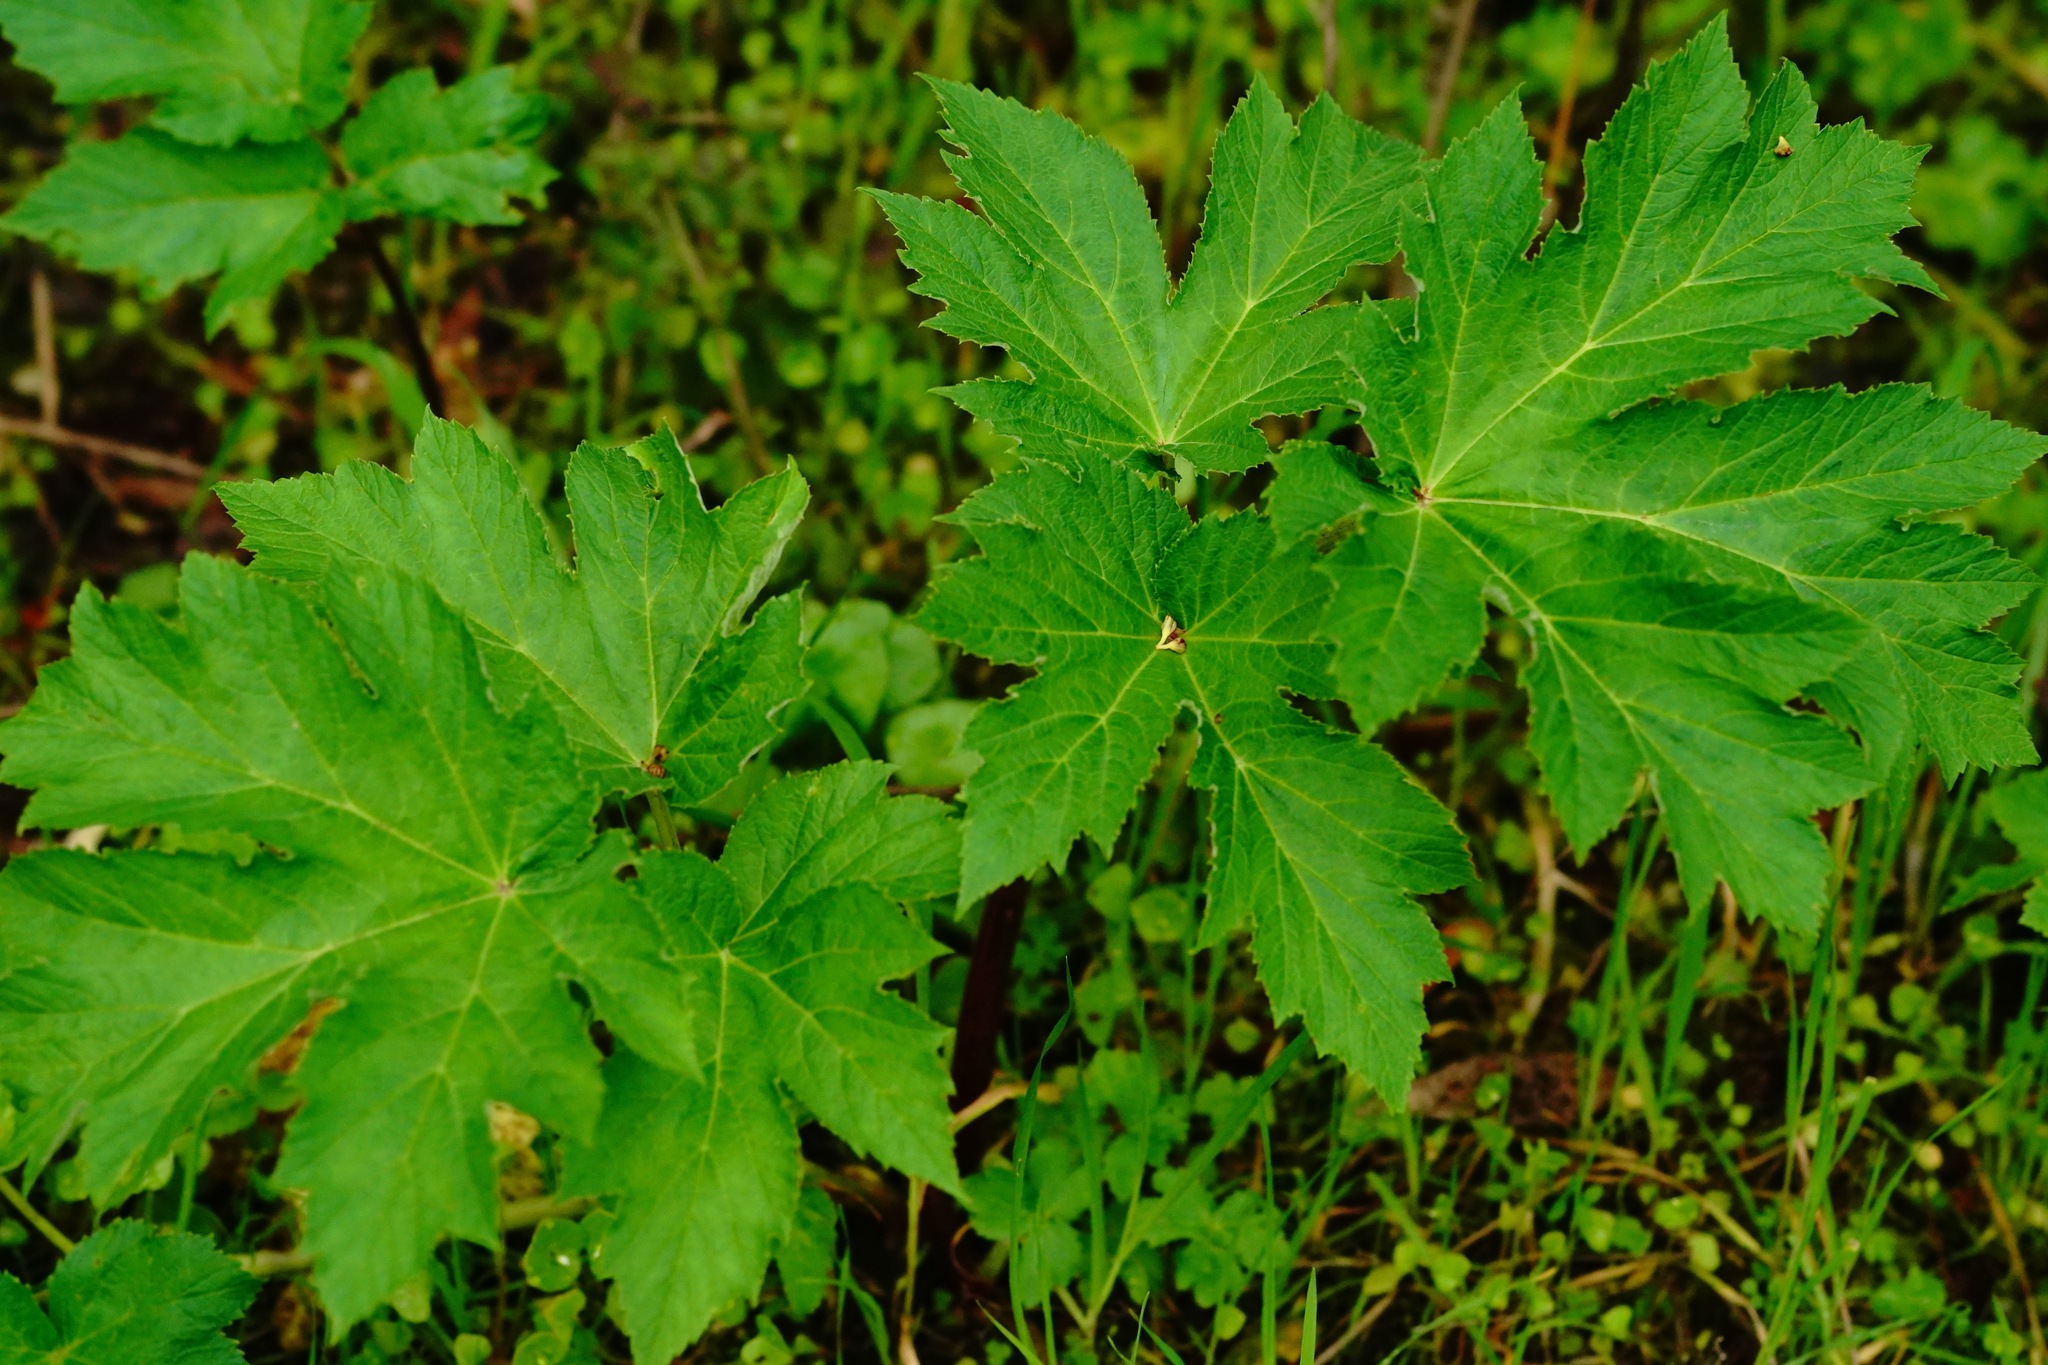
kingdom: Plantae
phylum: Tracheophyta
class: Magnoliopsida
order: Apiales
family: Apiaceae
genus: Heracleum
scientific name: Heracleum maximum
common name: American cow parsnip
